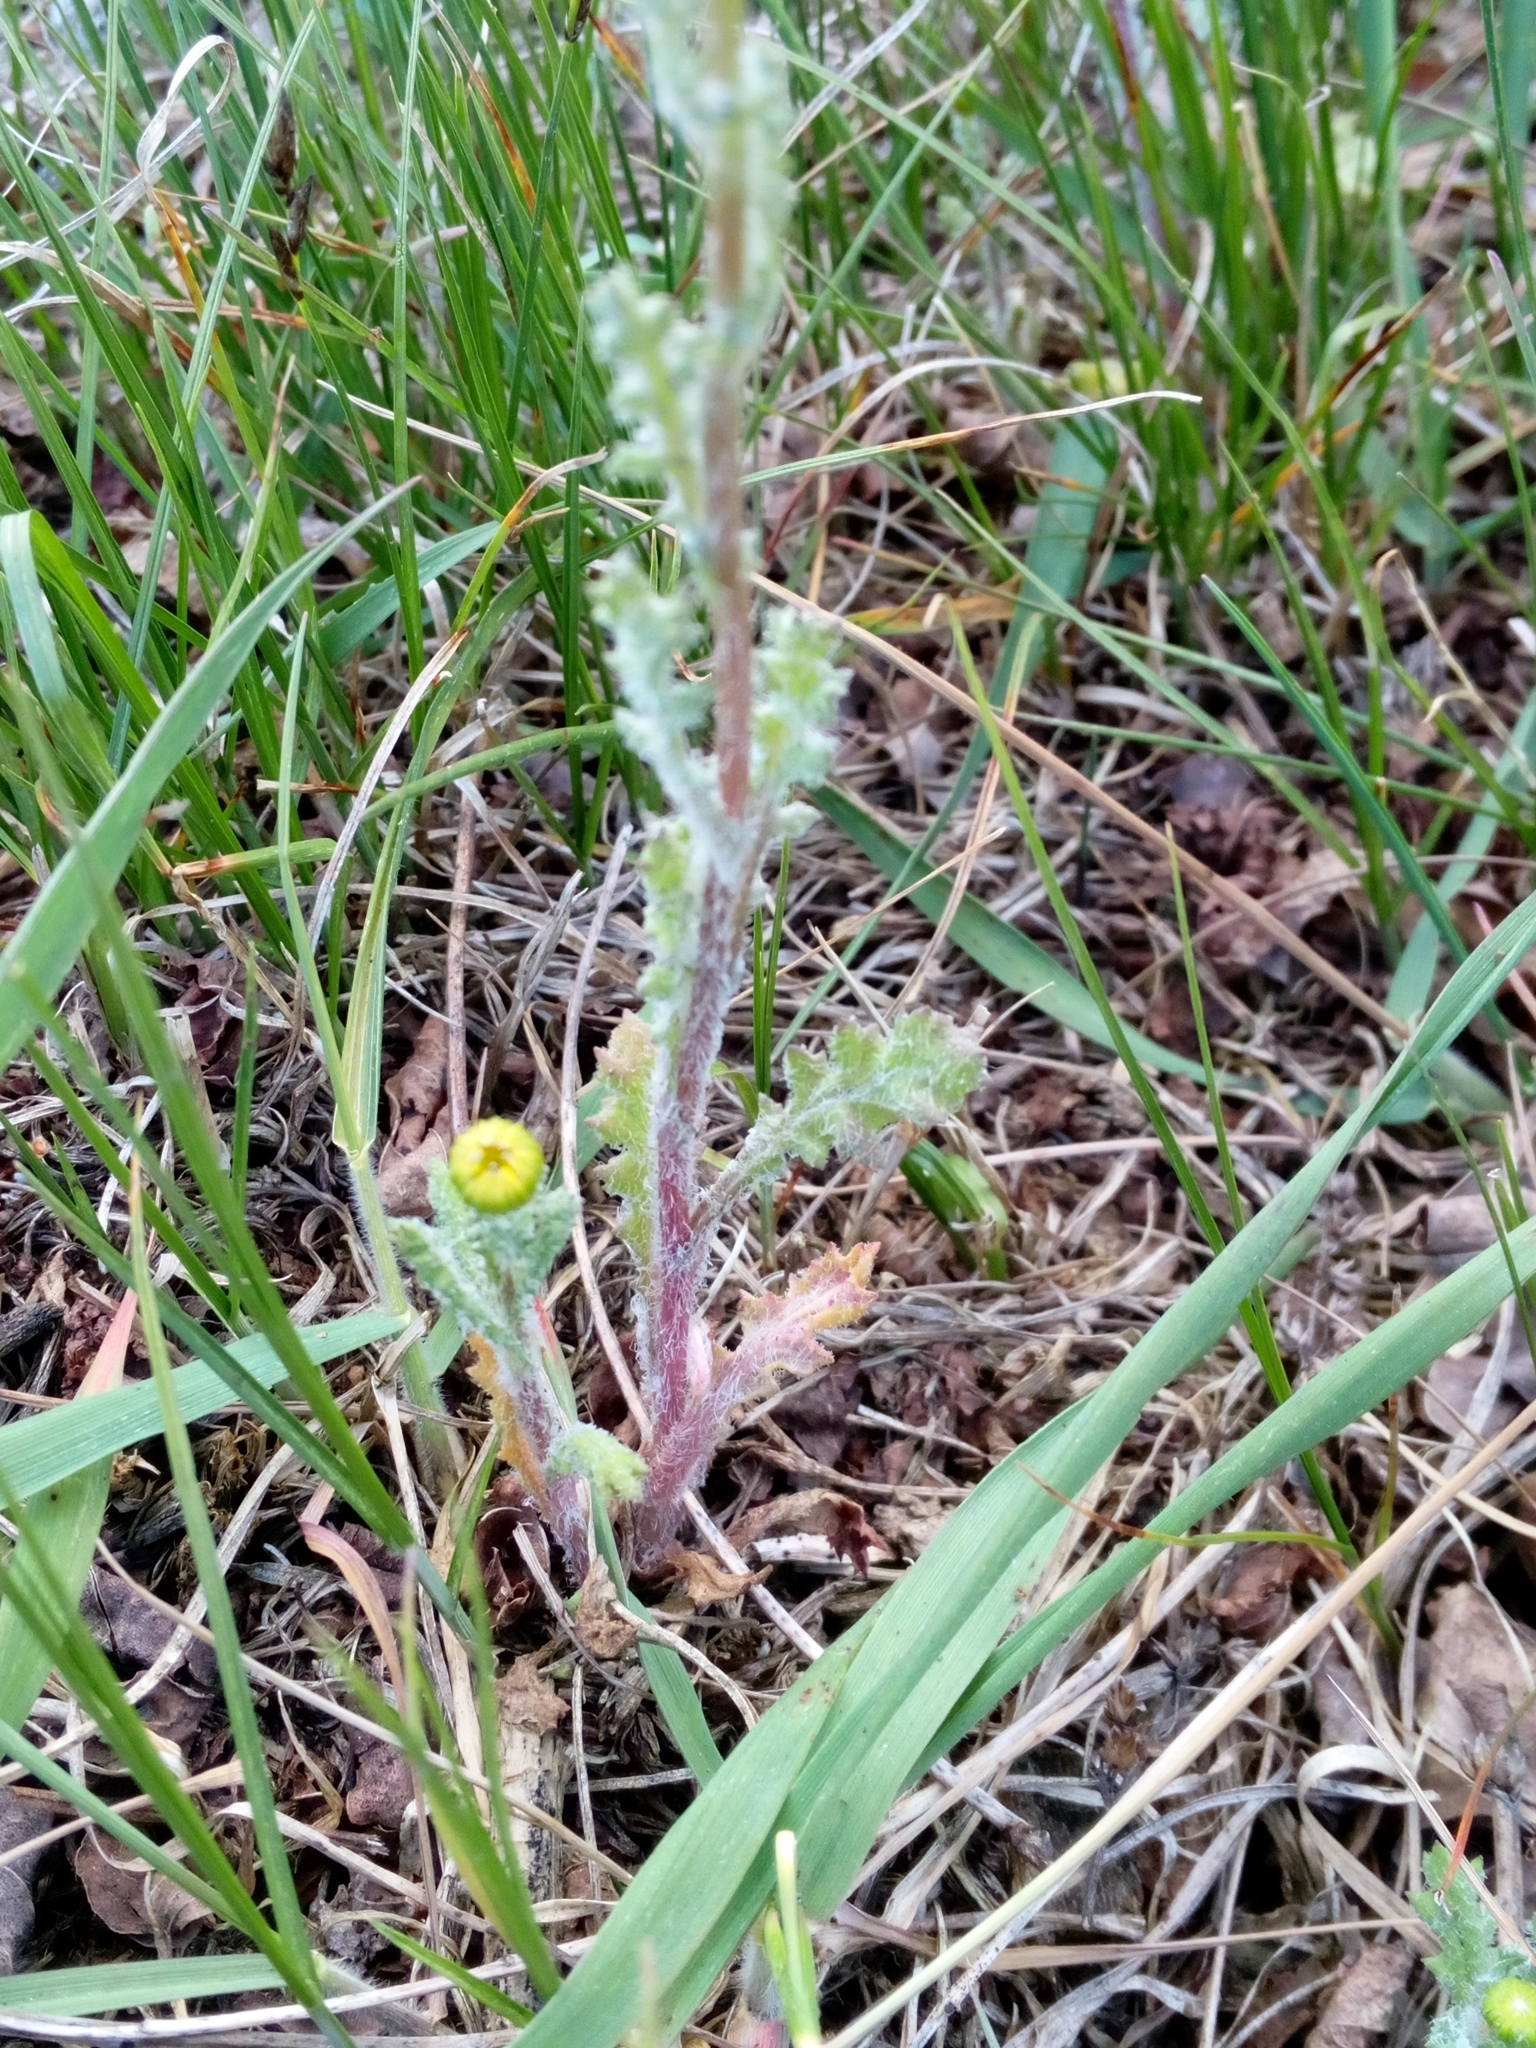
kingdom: Plantae
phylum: Tracheophyta
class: Magnoliopsida
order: Asterales
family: Asteraceae
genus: Senecio
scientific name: Senecio vernalis
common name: Eastern groundsel
